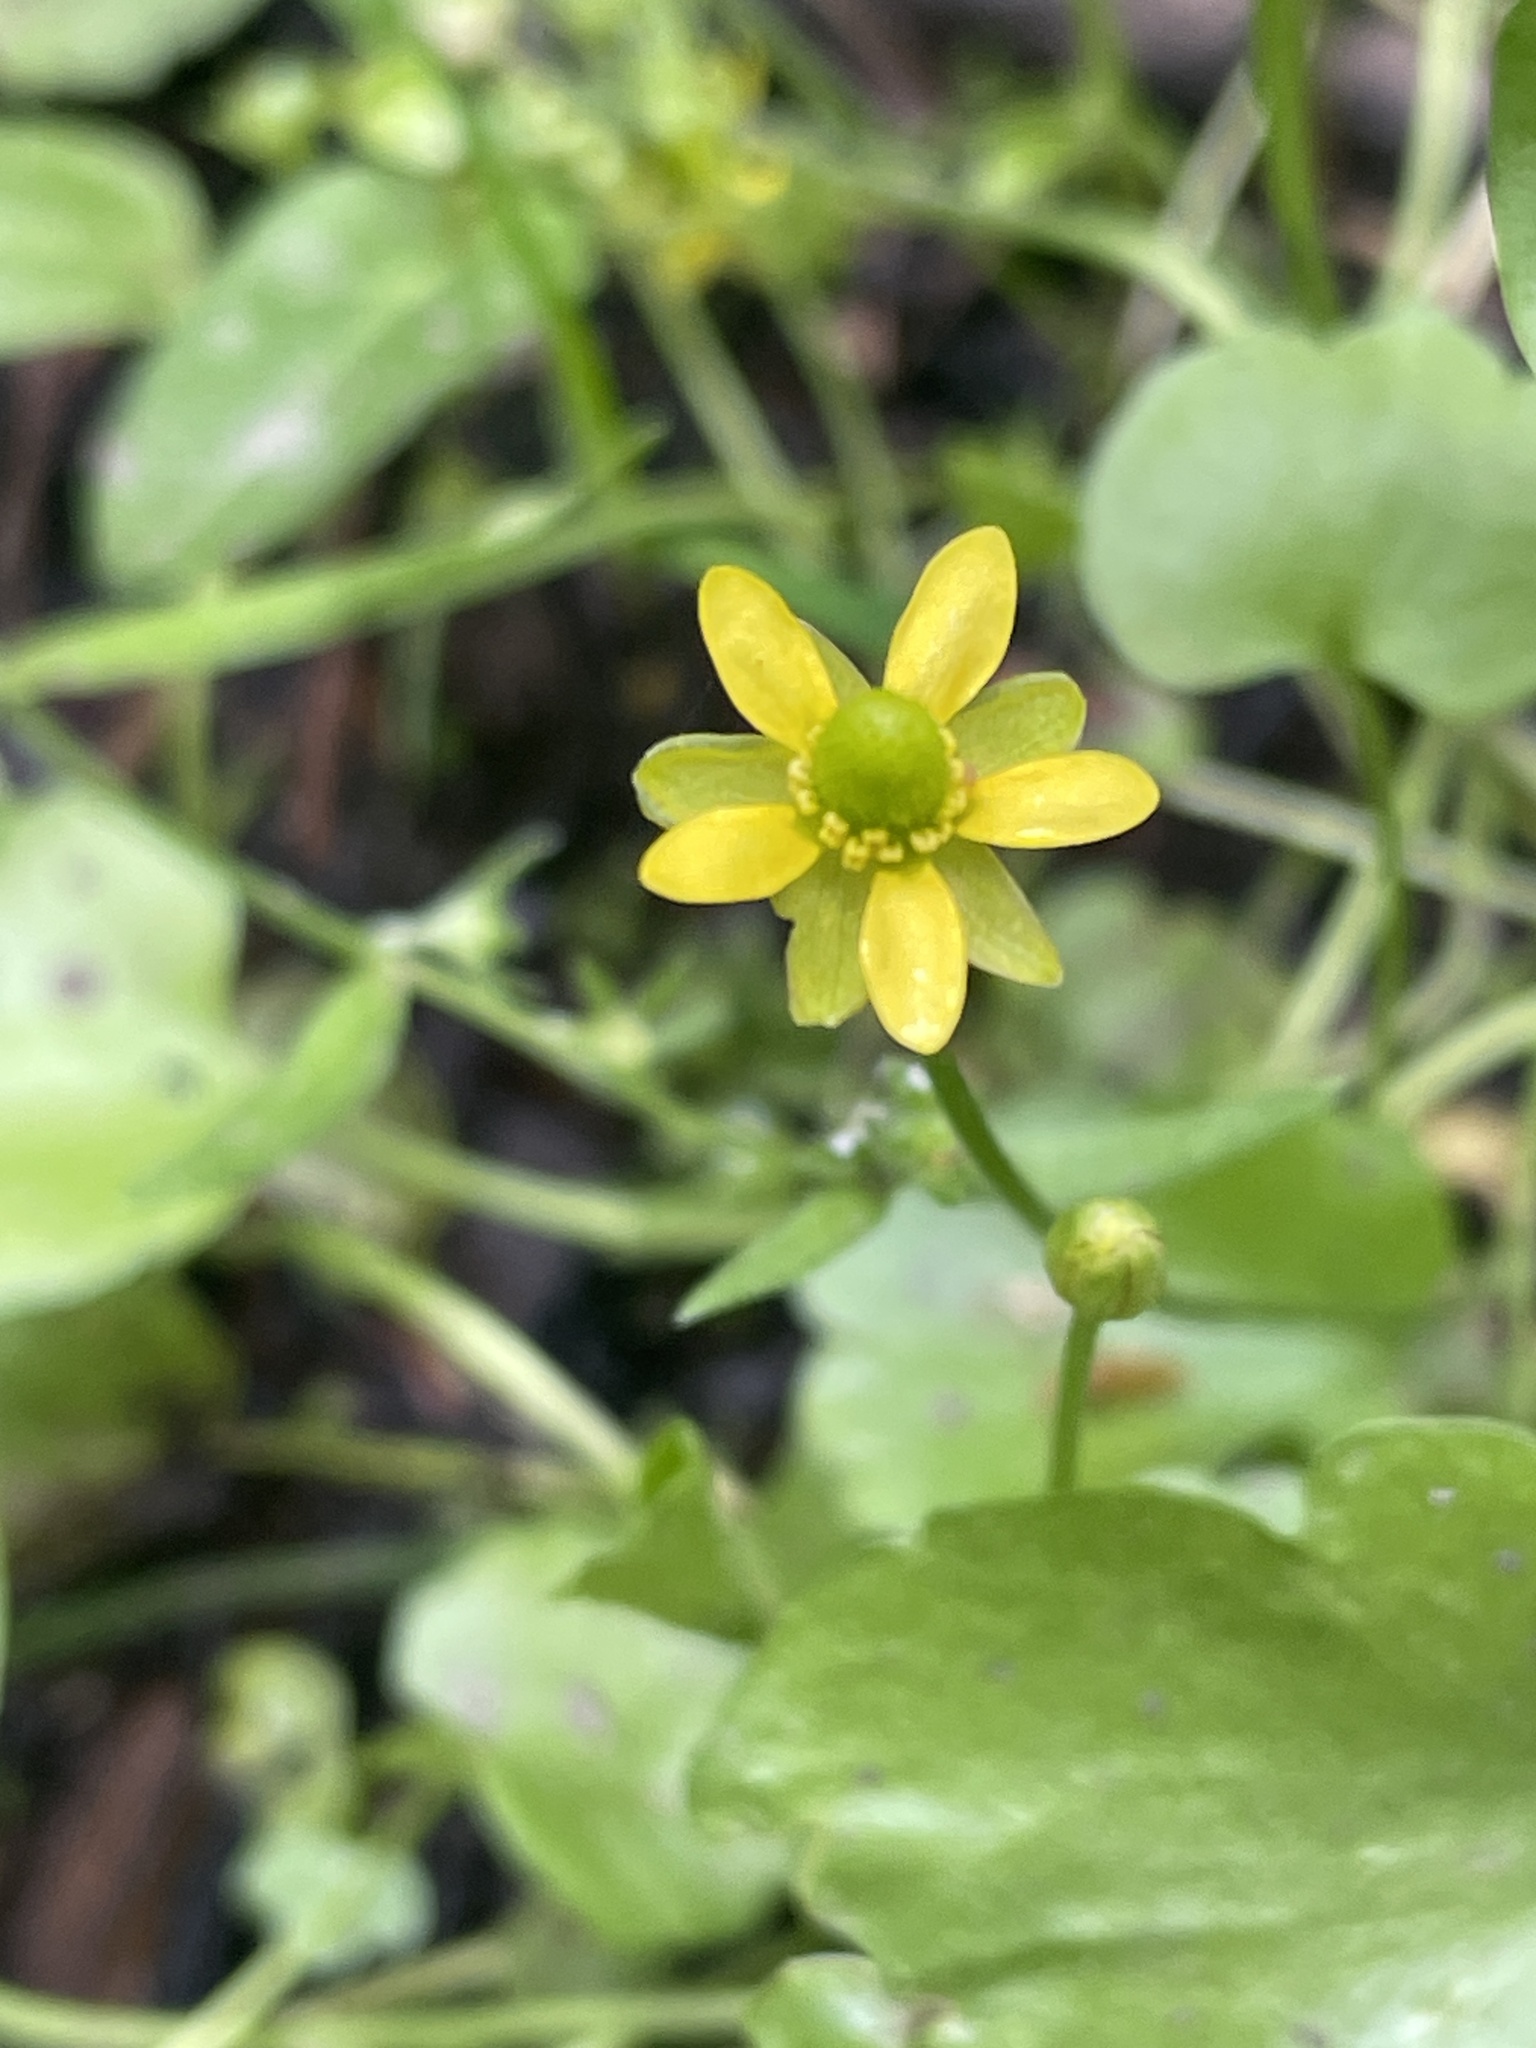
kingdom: Plantae
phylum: Tracheophyta
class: Magnoliopsida
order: Ranunculales
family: Ranunculaceae
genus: Halerpestes
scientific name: Halerpestes cymbalaria
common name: Seaside crowfoot
